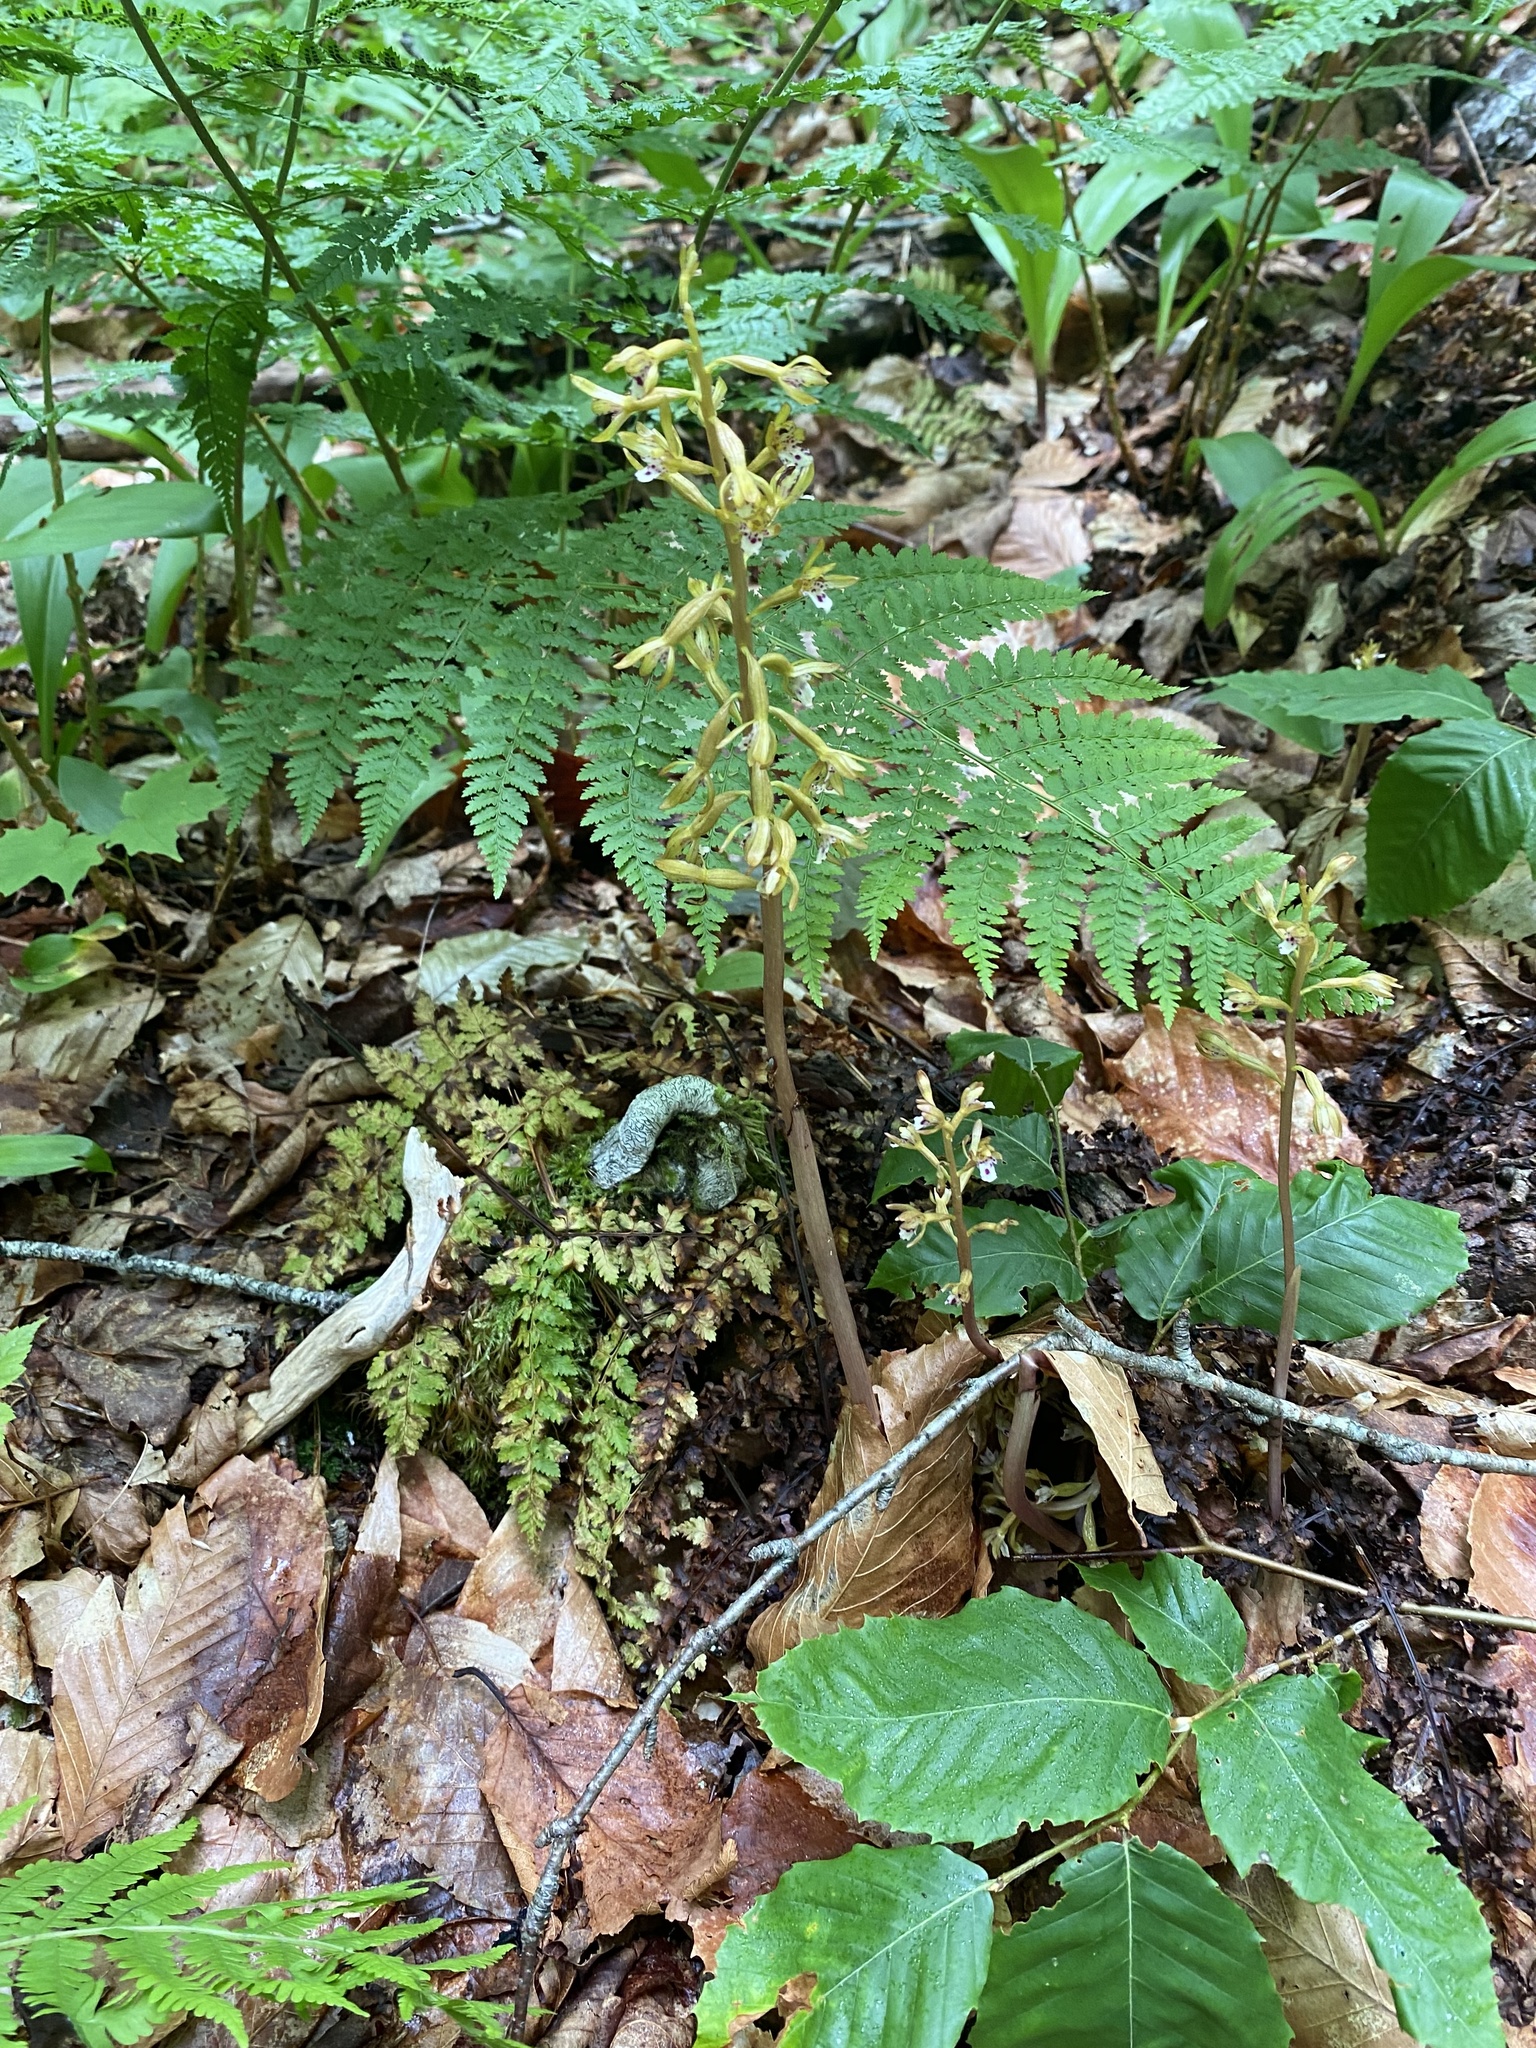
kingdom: Plantae
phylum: Tracheophyta
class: Liliopsida
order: Asparagales
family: Orchidaceae
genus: Corallorhiza
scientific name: Corallorhiza maculata
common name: Spotted coralroot
